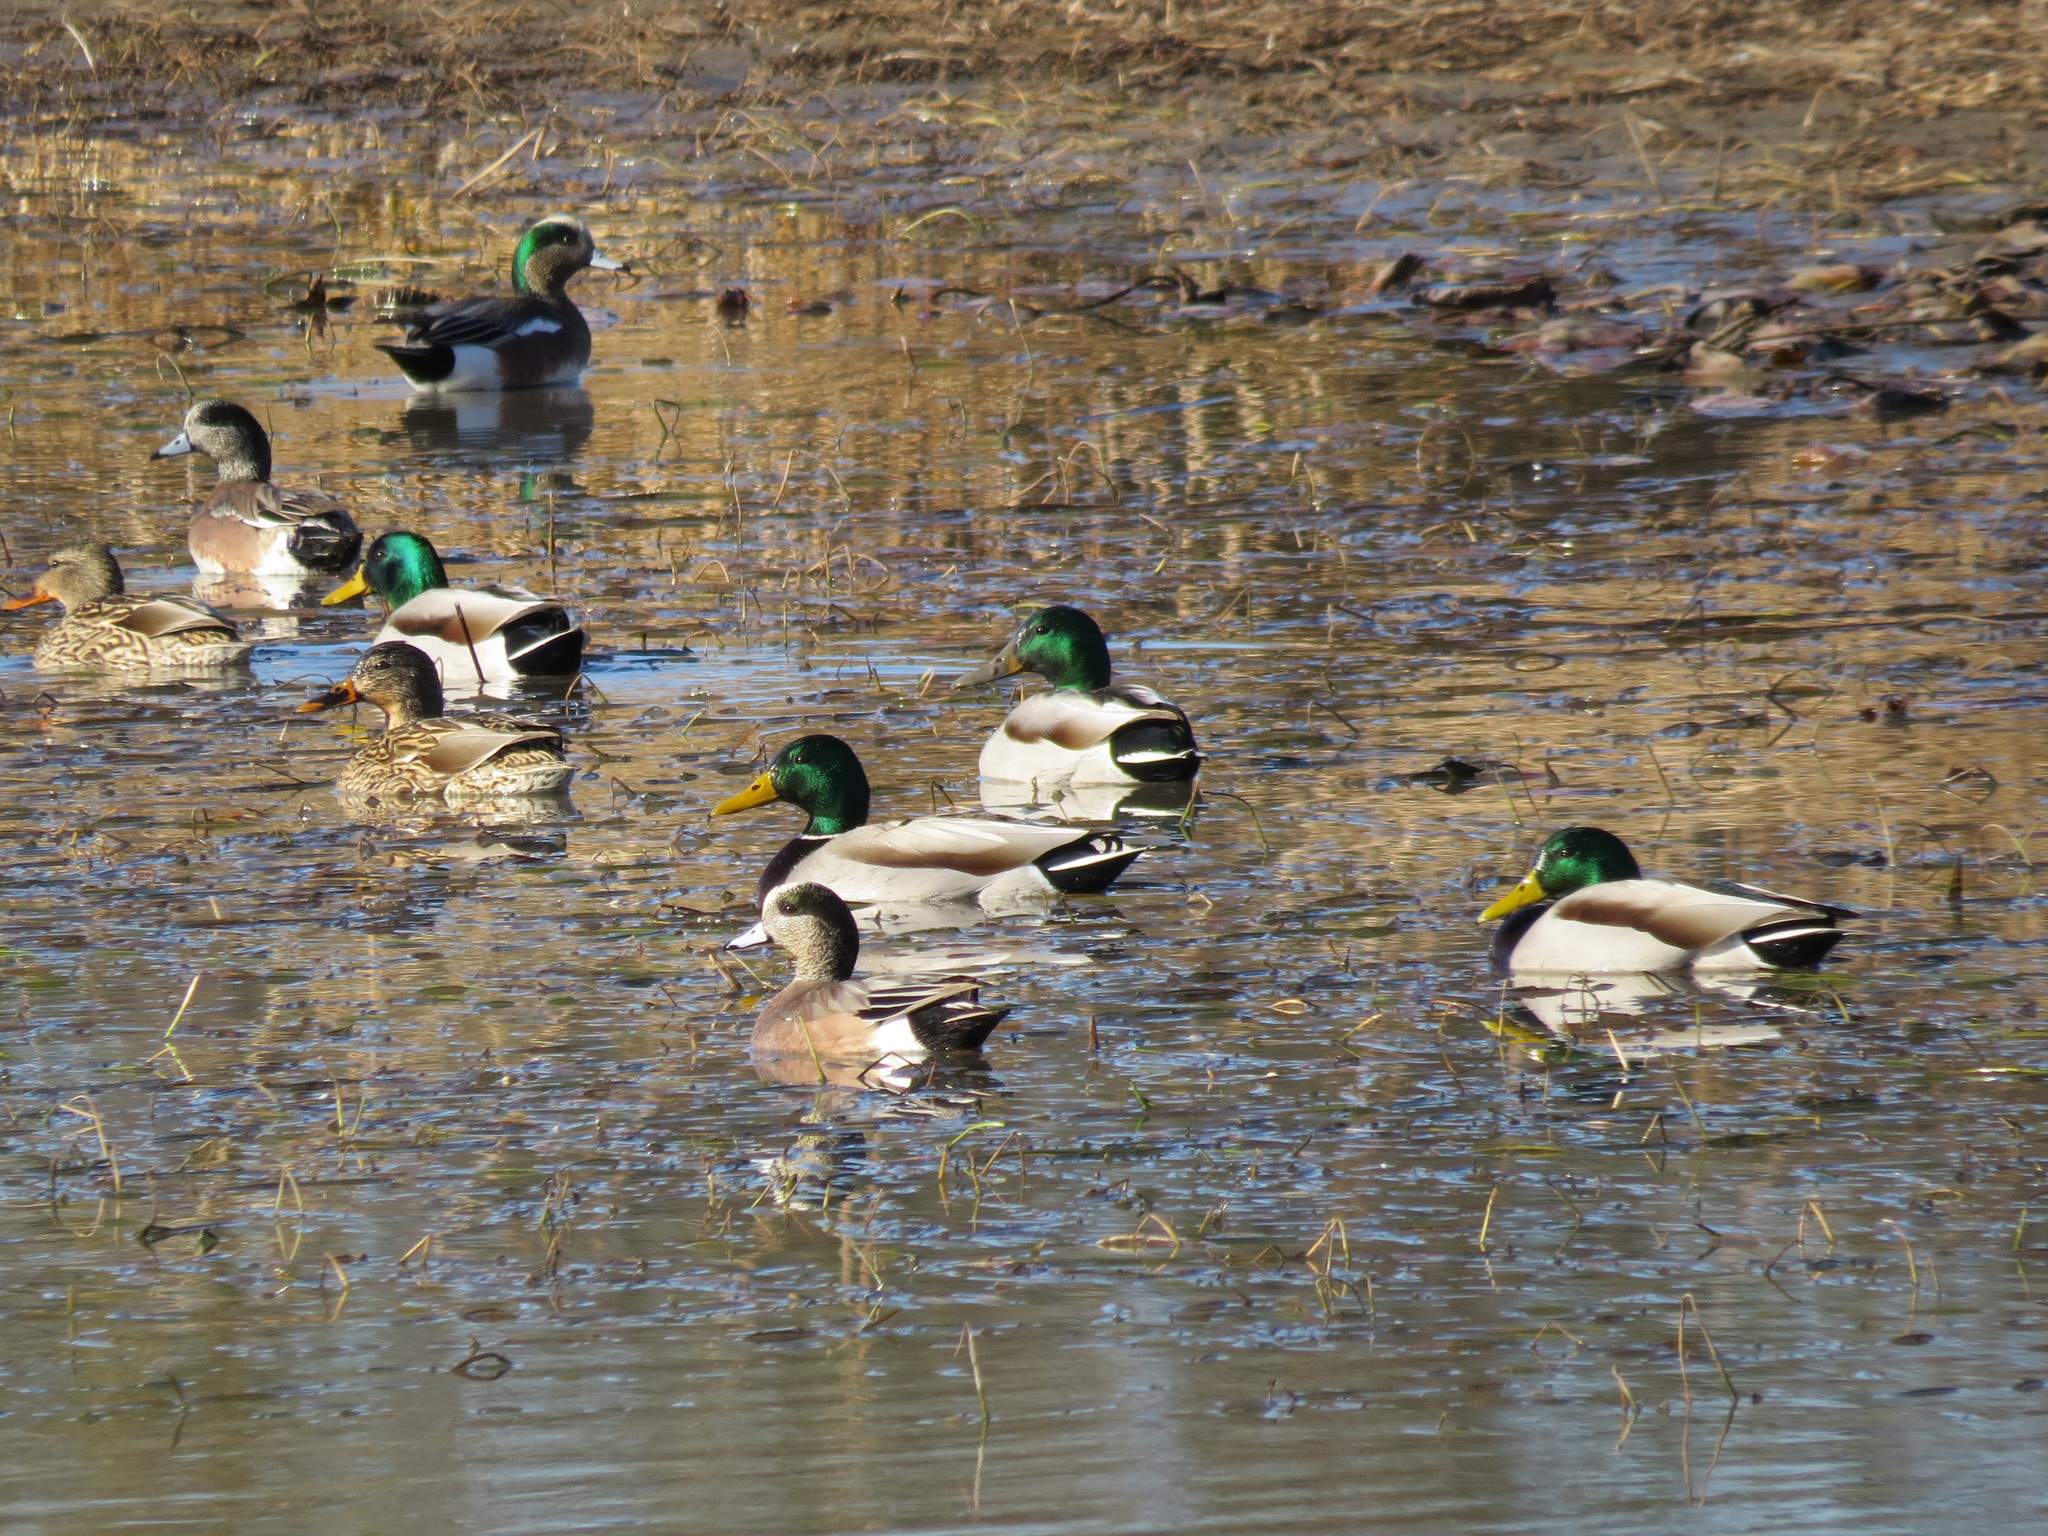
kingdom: Animalia
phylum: Chordata
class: Aves
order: Anseriformes
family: Anatidae
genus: Anas
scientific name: Anas platyrhynchos
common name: Mallard
